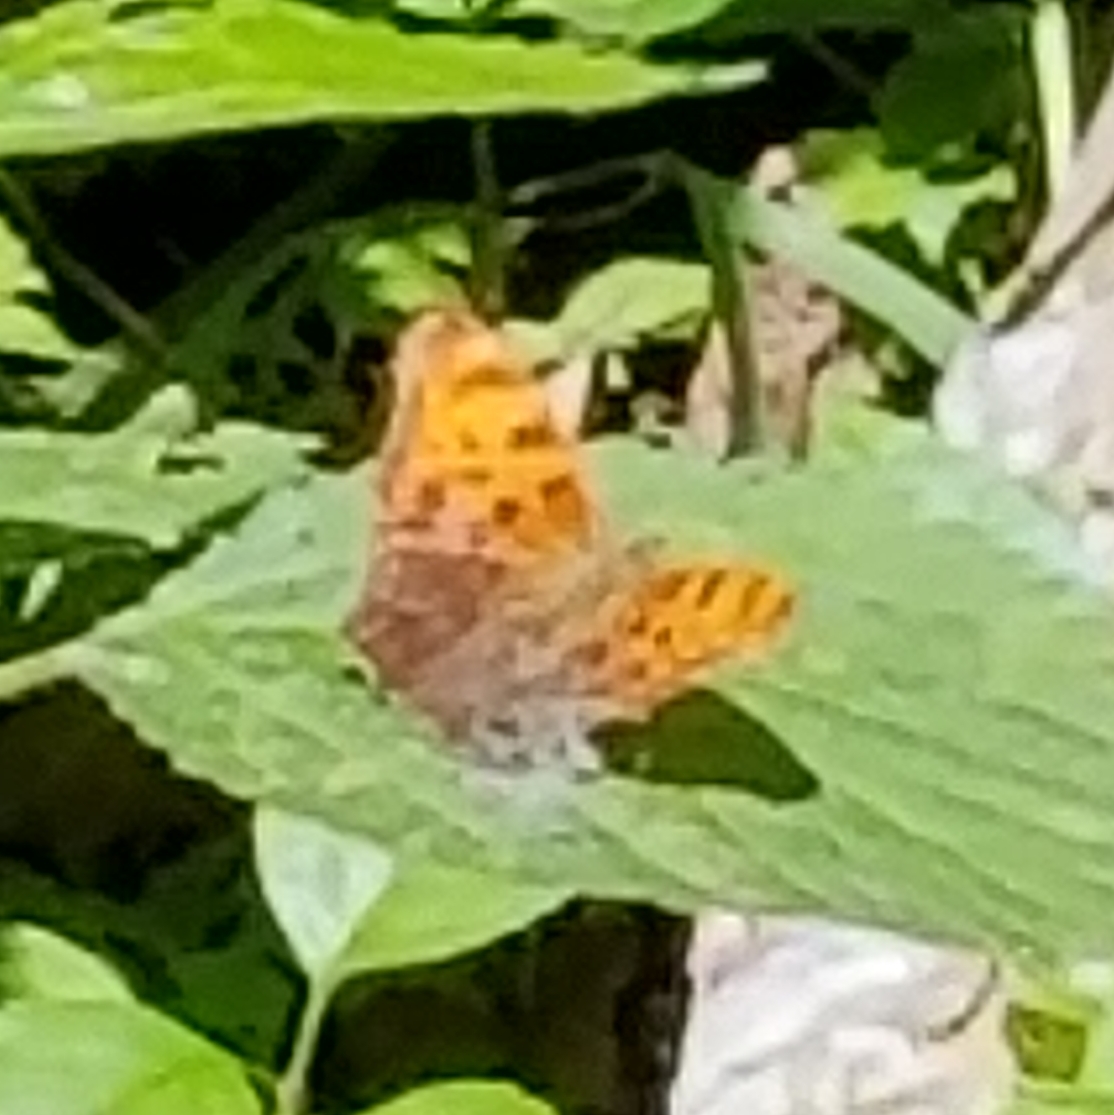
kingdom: Animalia
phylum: Arthropoda
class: Insecta
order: Lepidoptera
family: Nymphalidae
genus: Polygonia
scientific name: Polygonia comma
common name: Eastern comma
